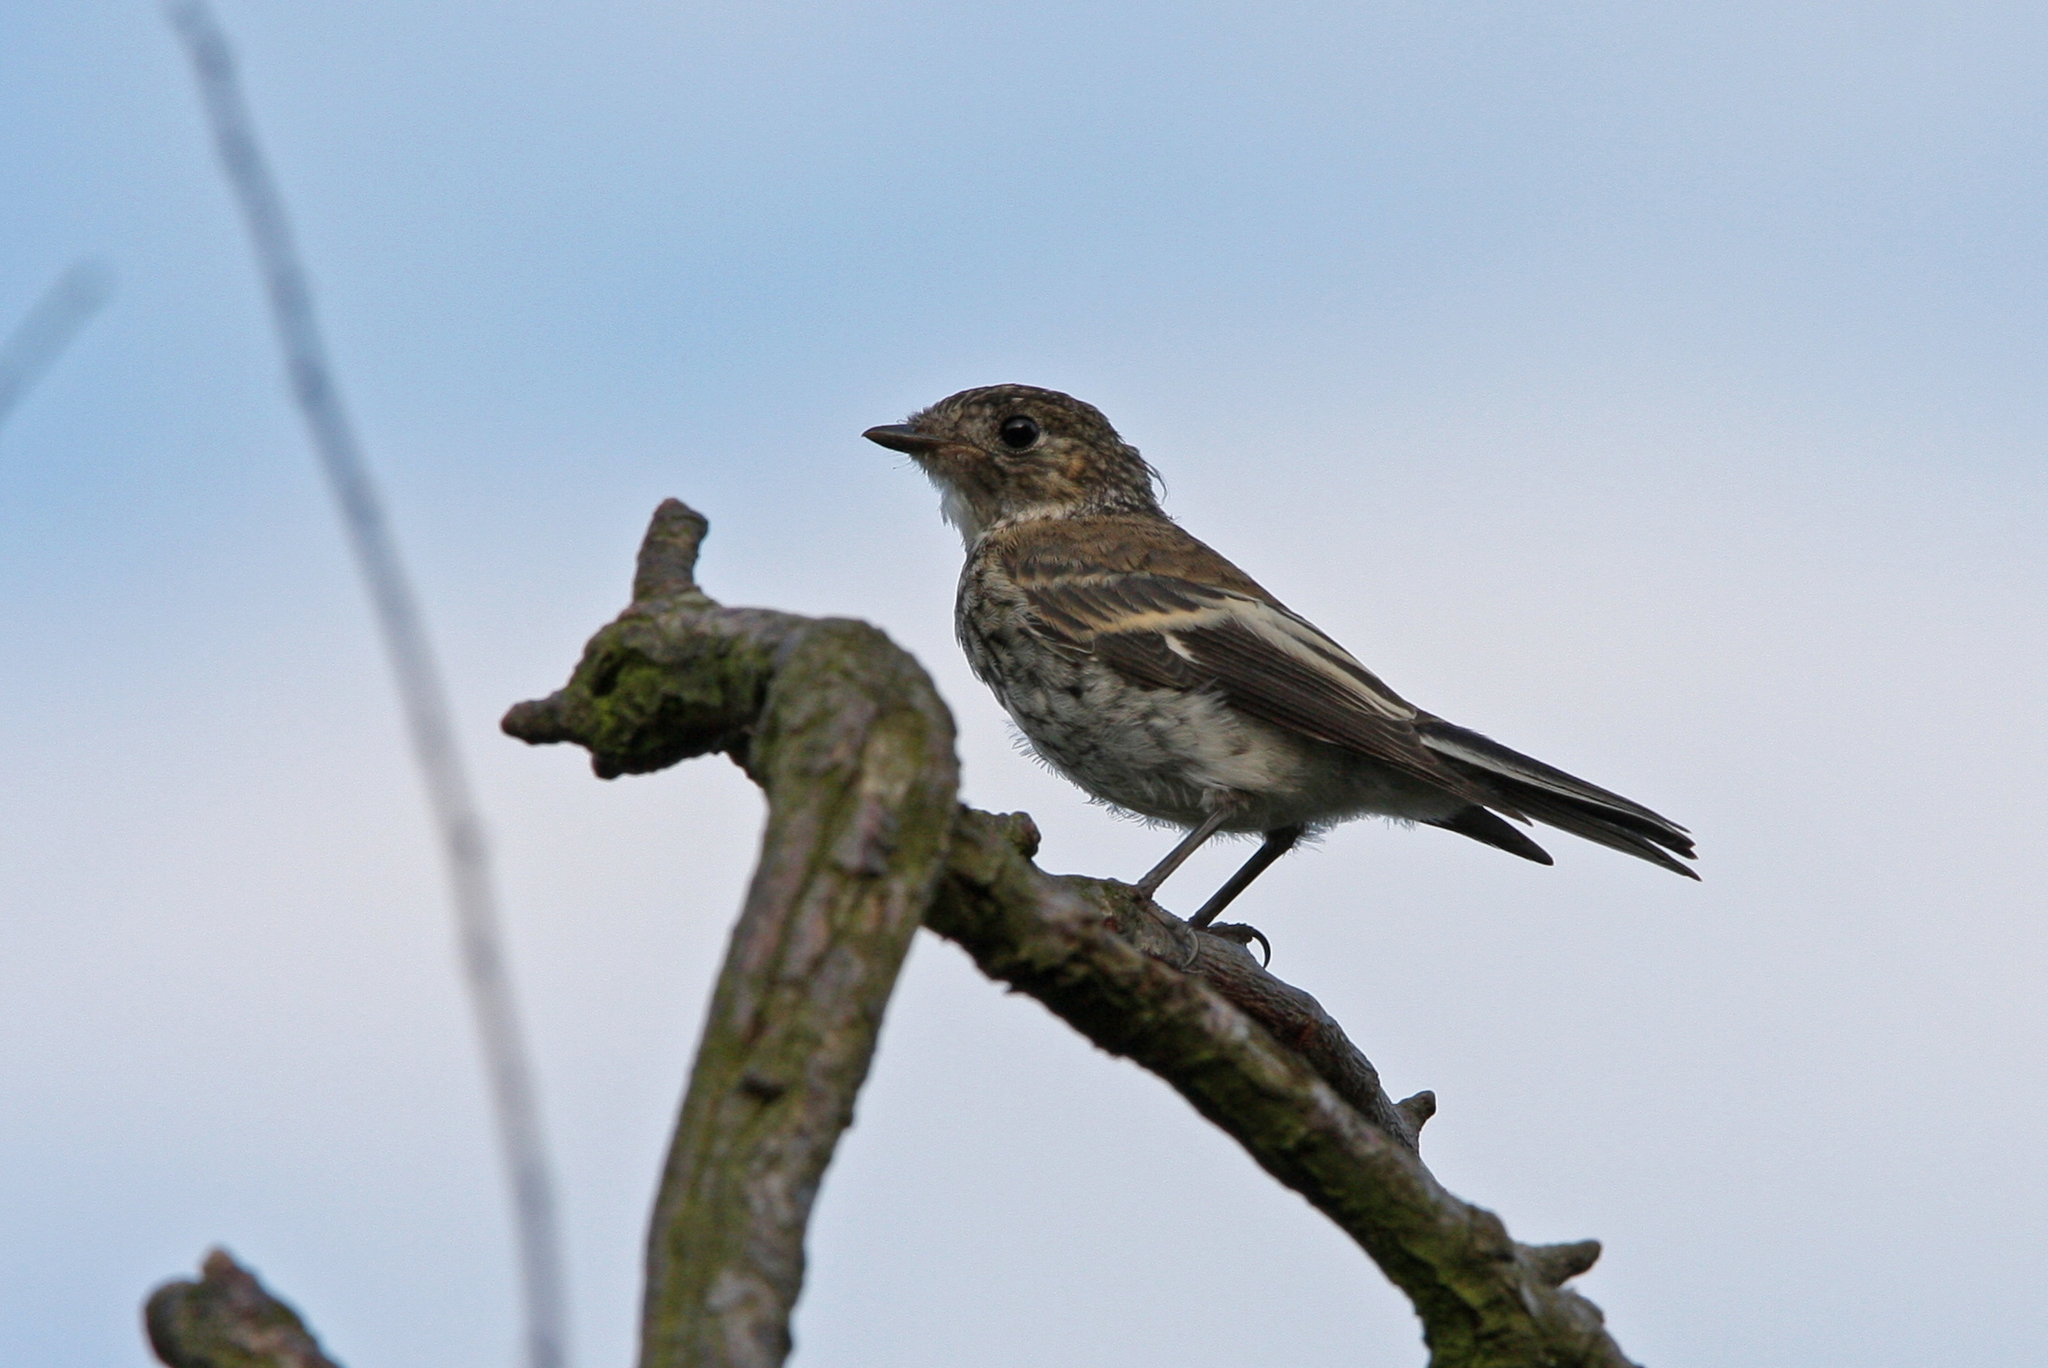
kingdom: Animalia
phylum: Chordata
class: Aves
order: Passeriformes
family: Muscicapidae
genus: Ficedula
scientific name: Ficedula hypoleuca
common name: European pied flycatcher
